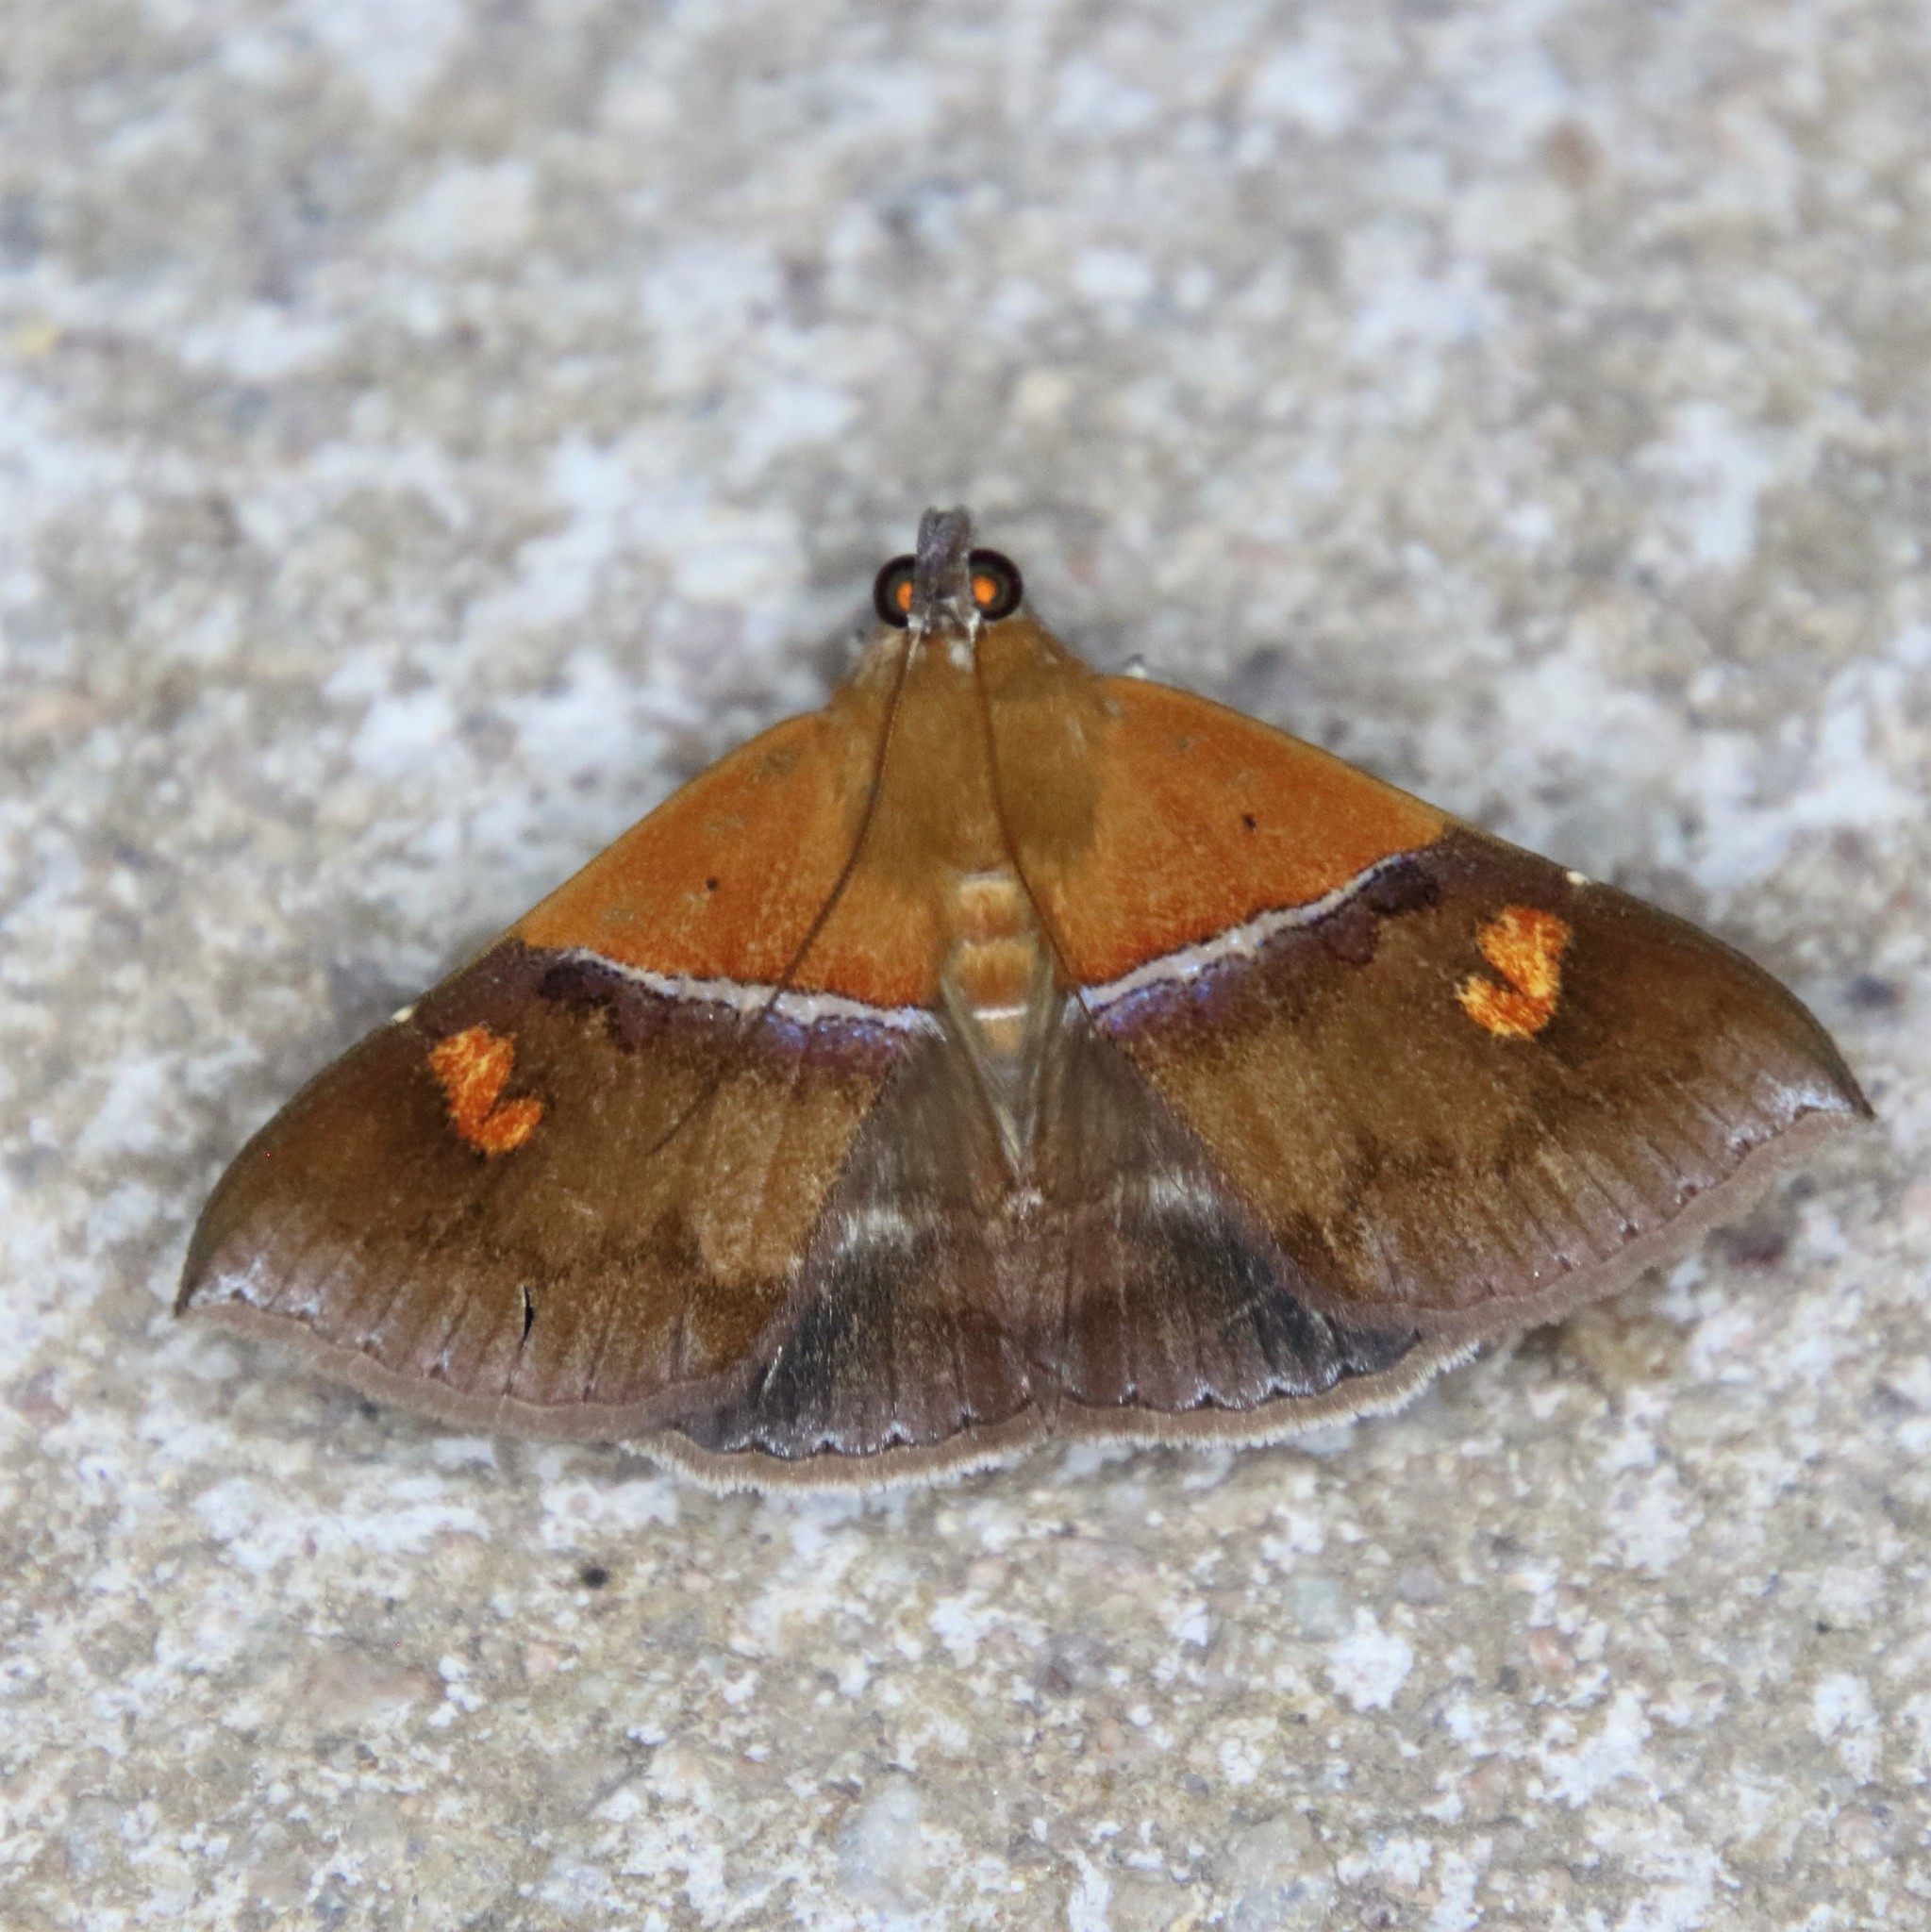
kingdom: Animalia
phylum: Arthropoda
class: Insecta
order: Lepidoptera
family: Erebidae
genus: Sympis
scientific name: Sympis rufibasis
